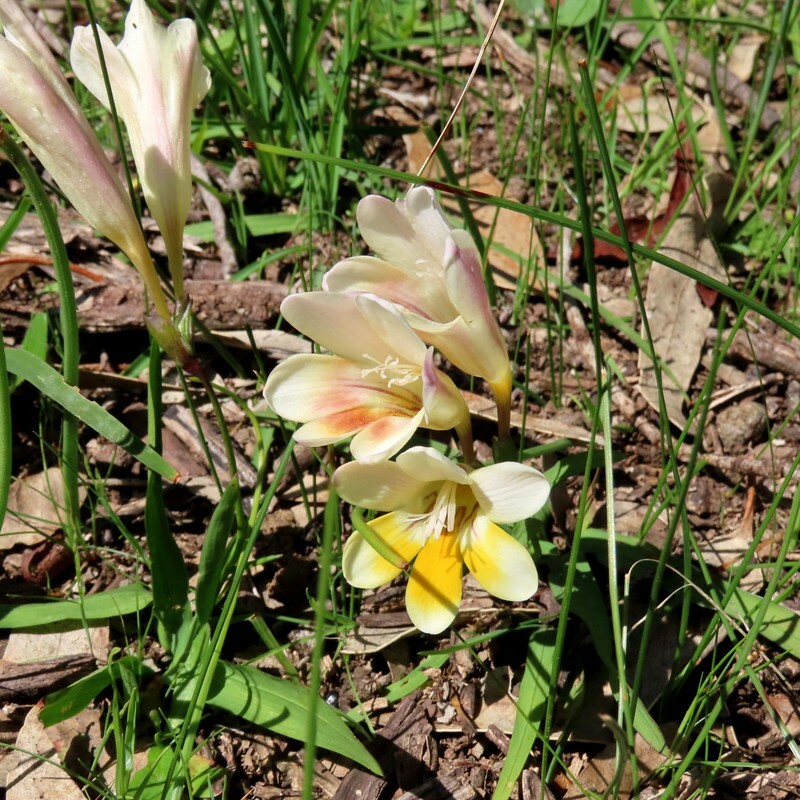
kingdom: Plantae
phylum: Tracheophyta
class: Liliopsida
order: Asparagales
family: Iridaceae
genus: Freesia
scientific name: Freesia leichtlinii
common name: Freesia
